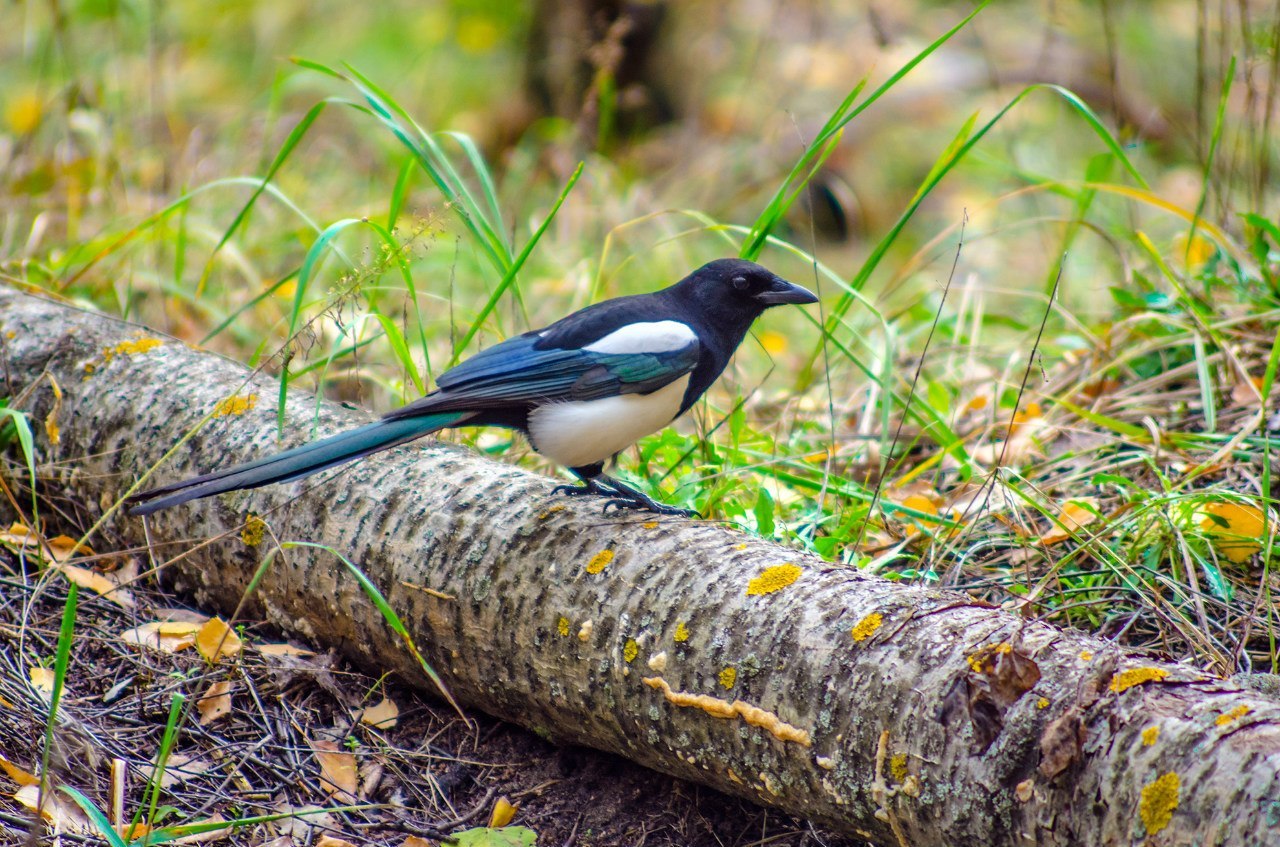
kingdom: Animalia
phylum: Chordata
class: Aves
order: Passeriformes
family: Corvidae
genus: Pica
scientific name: Pica pica
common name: Eurasian magpie
